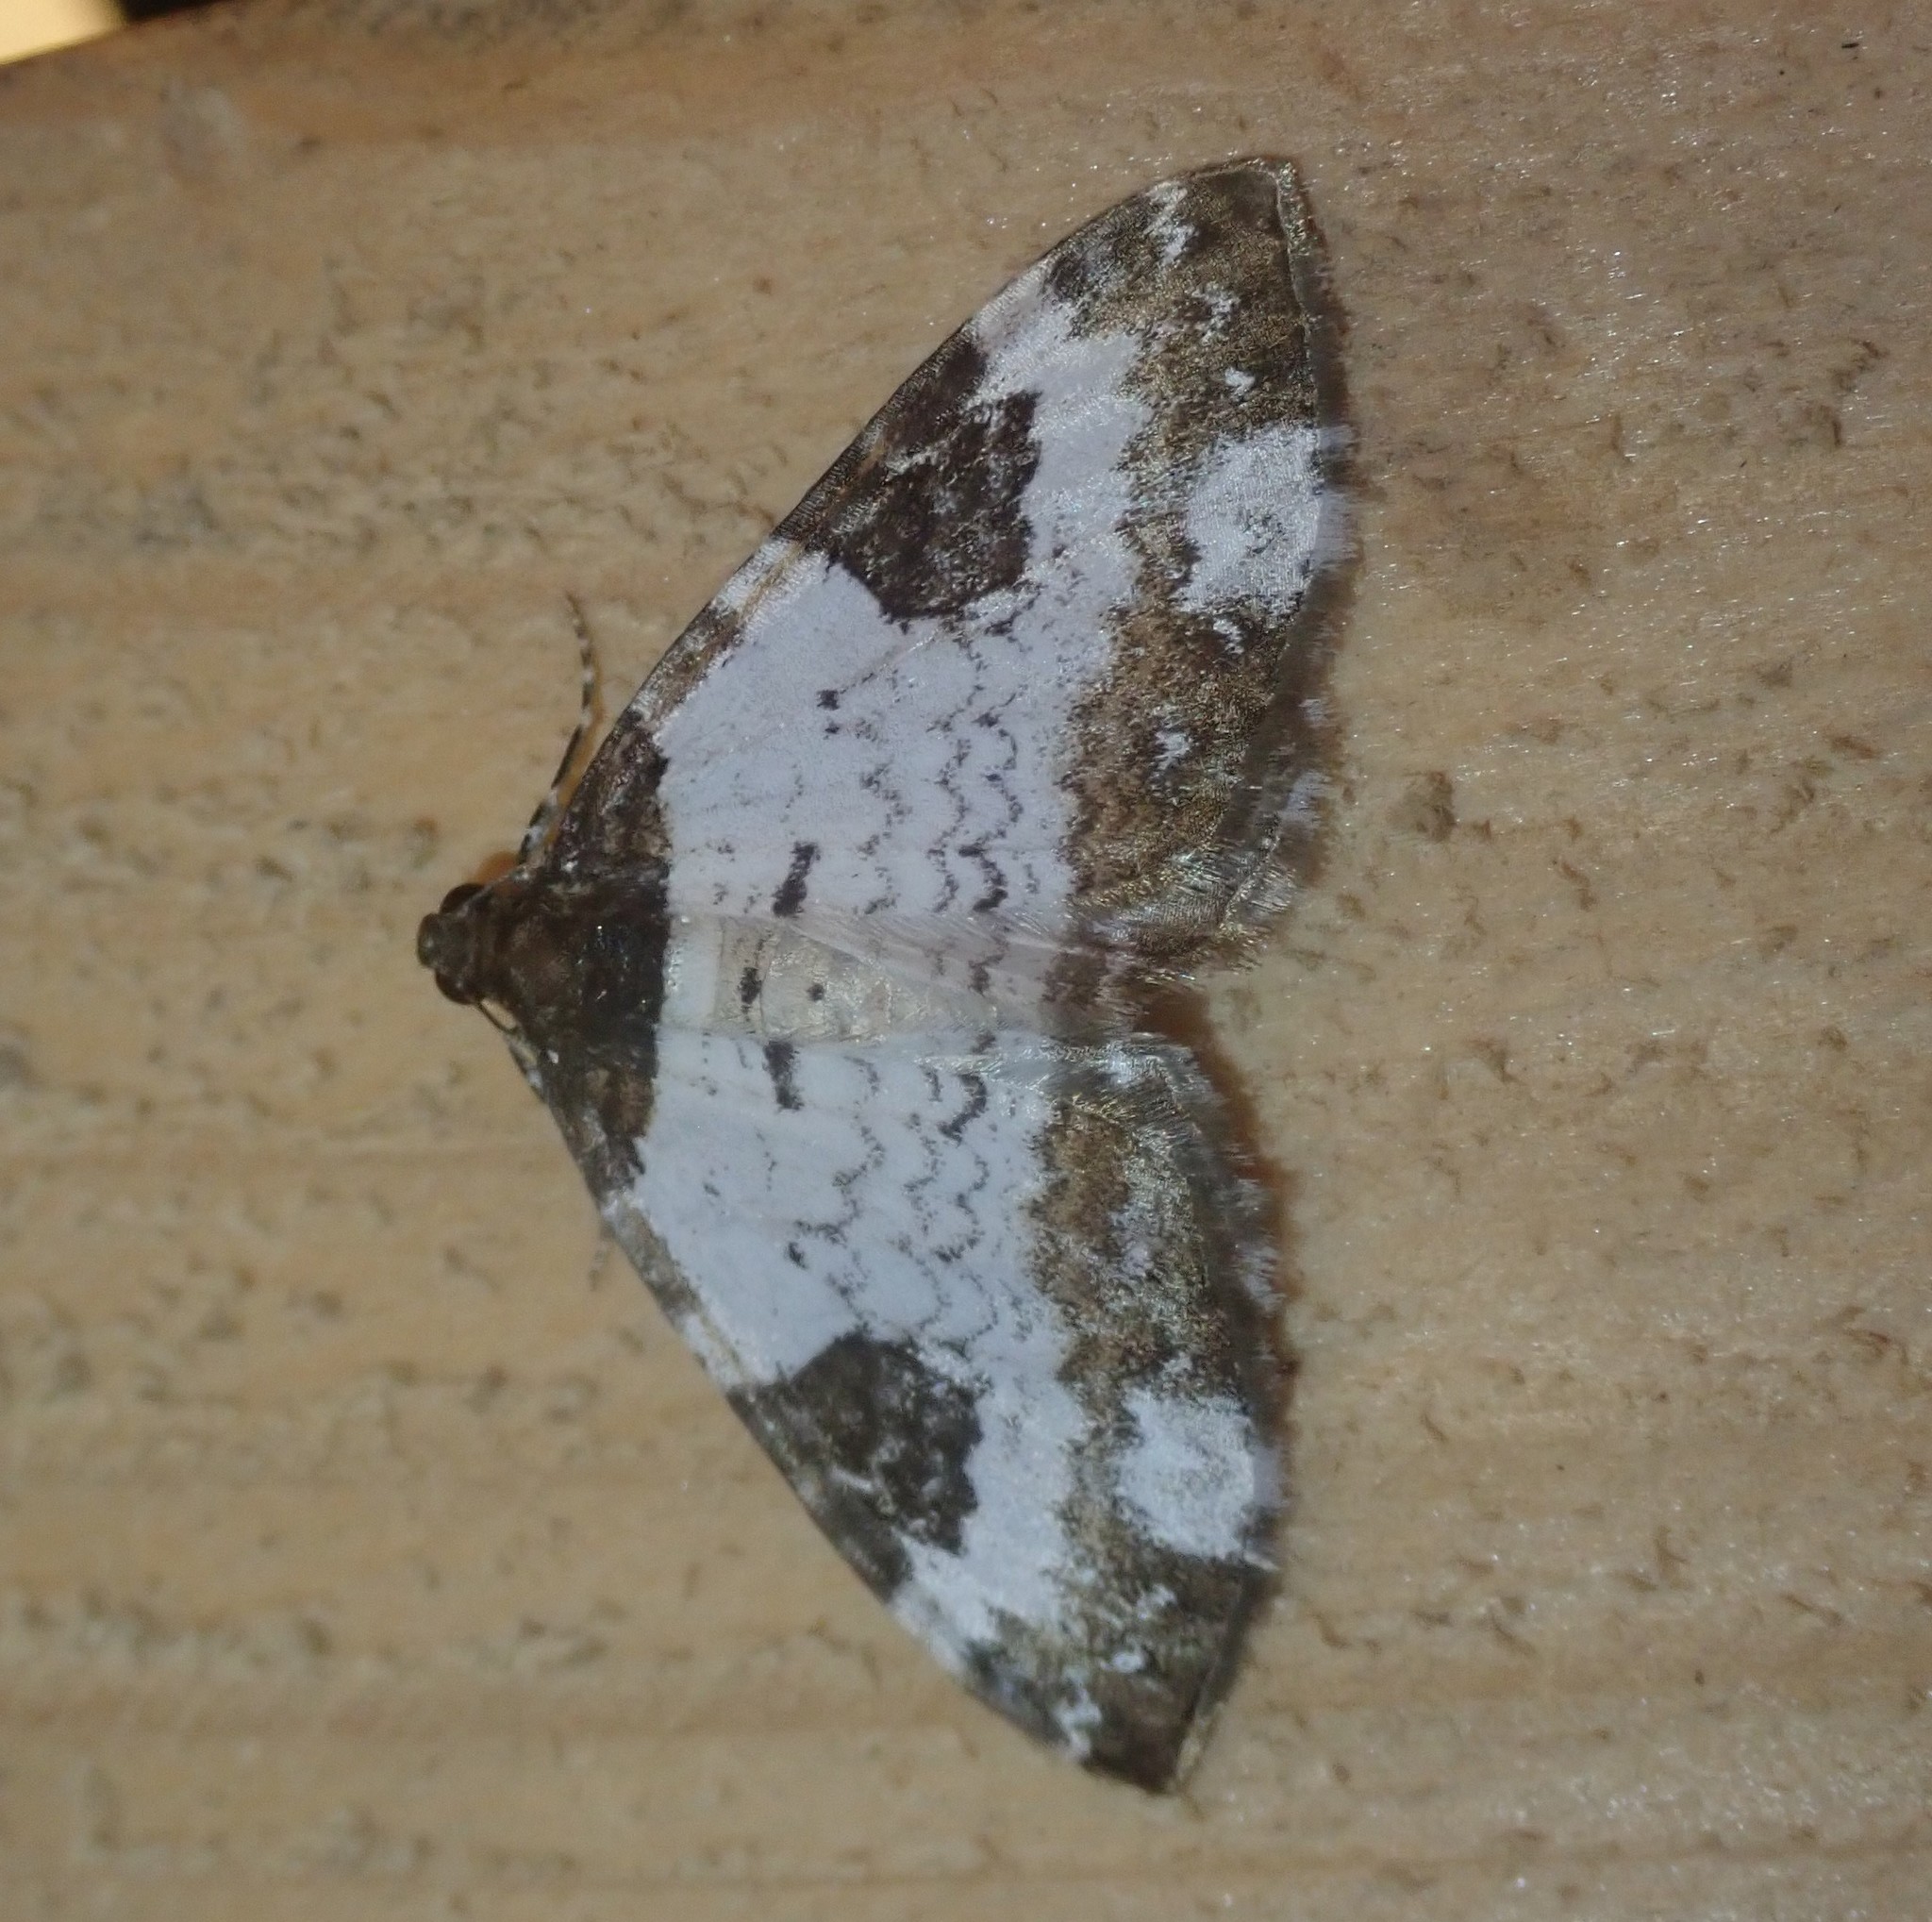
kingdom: Animalia
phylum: Arthropoda
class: Insecta
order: Lepidoptera
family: Geometridae
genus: Melanthia
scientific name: Melanthia procellata
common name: Pretty chalk carpet
